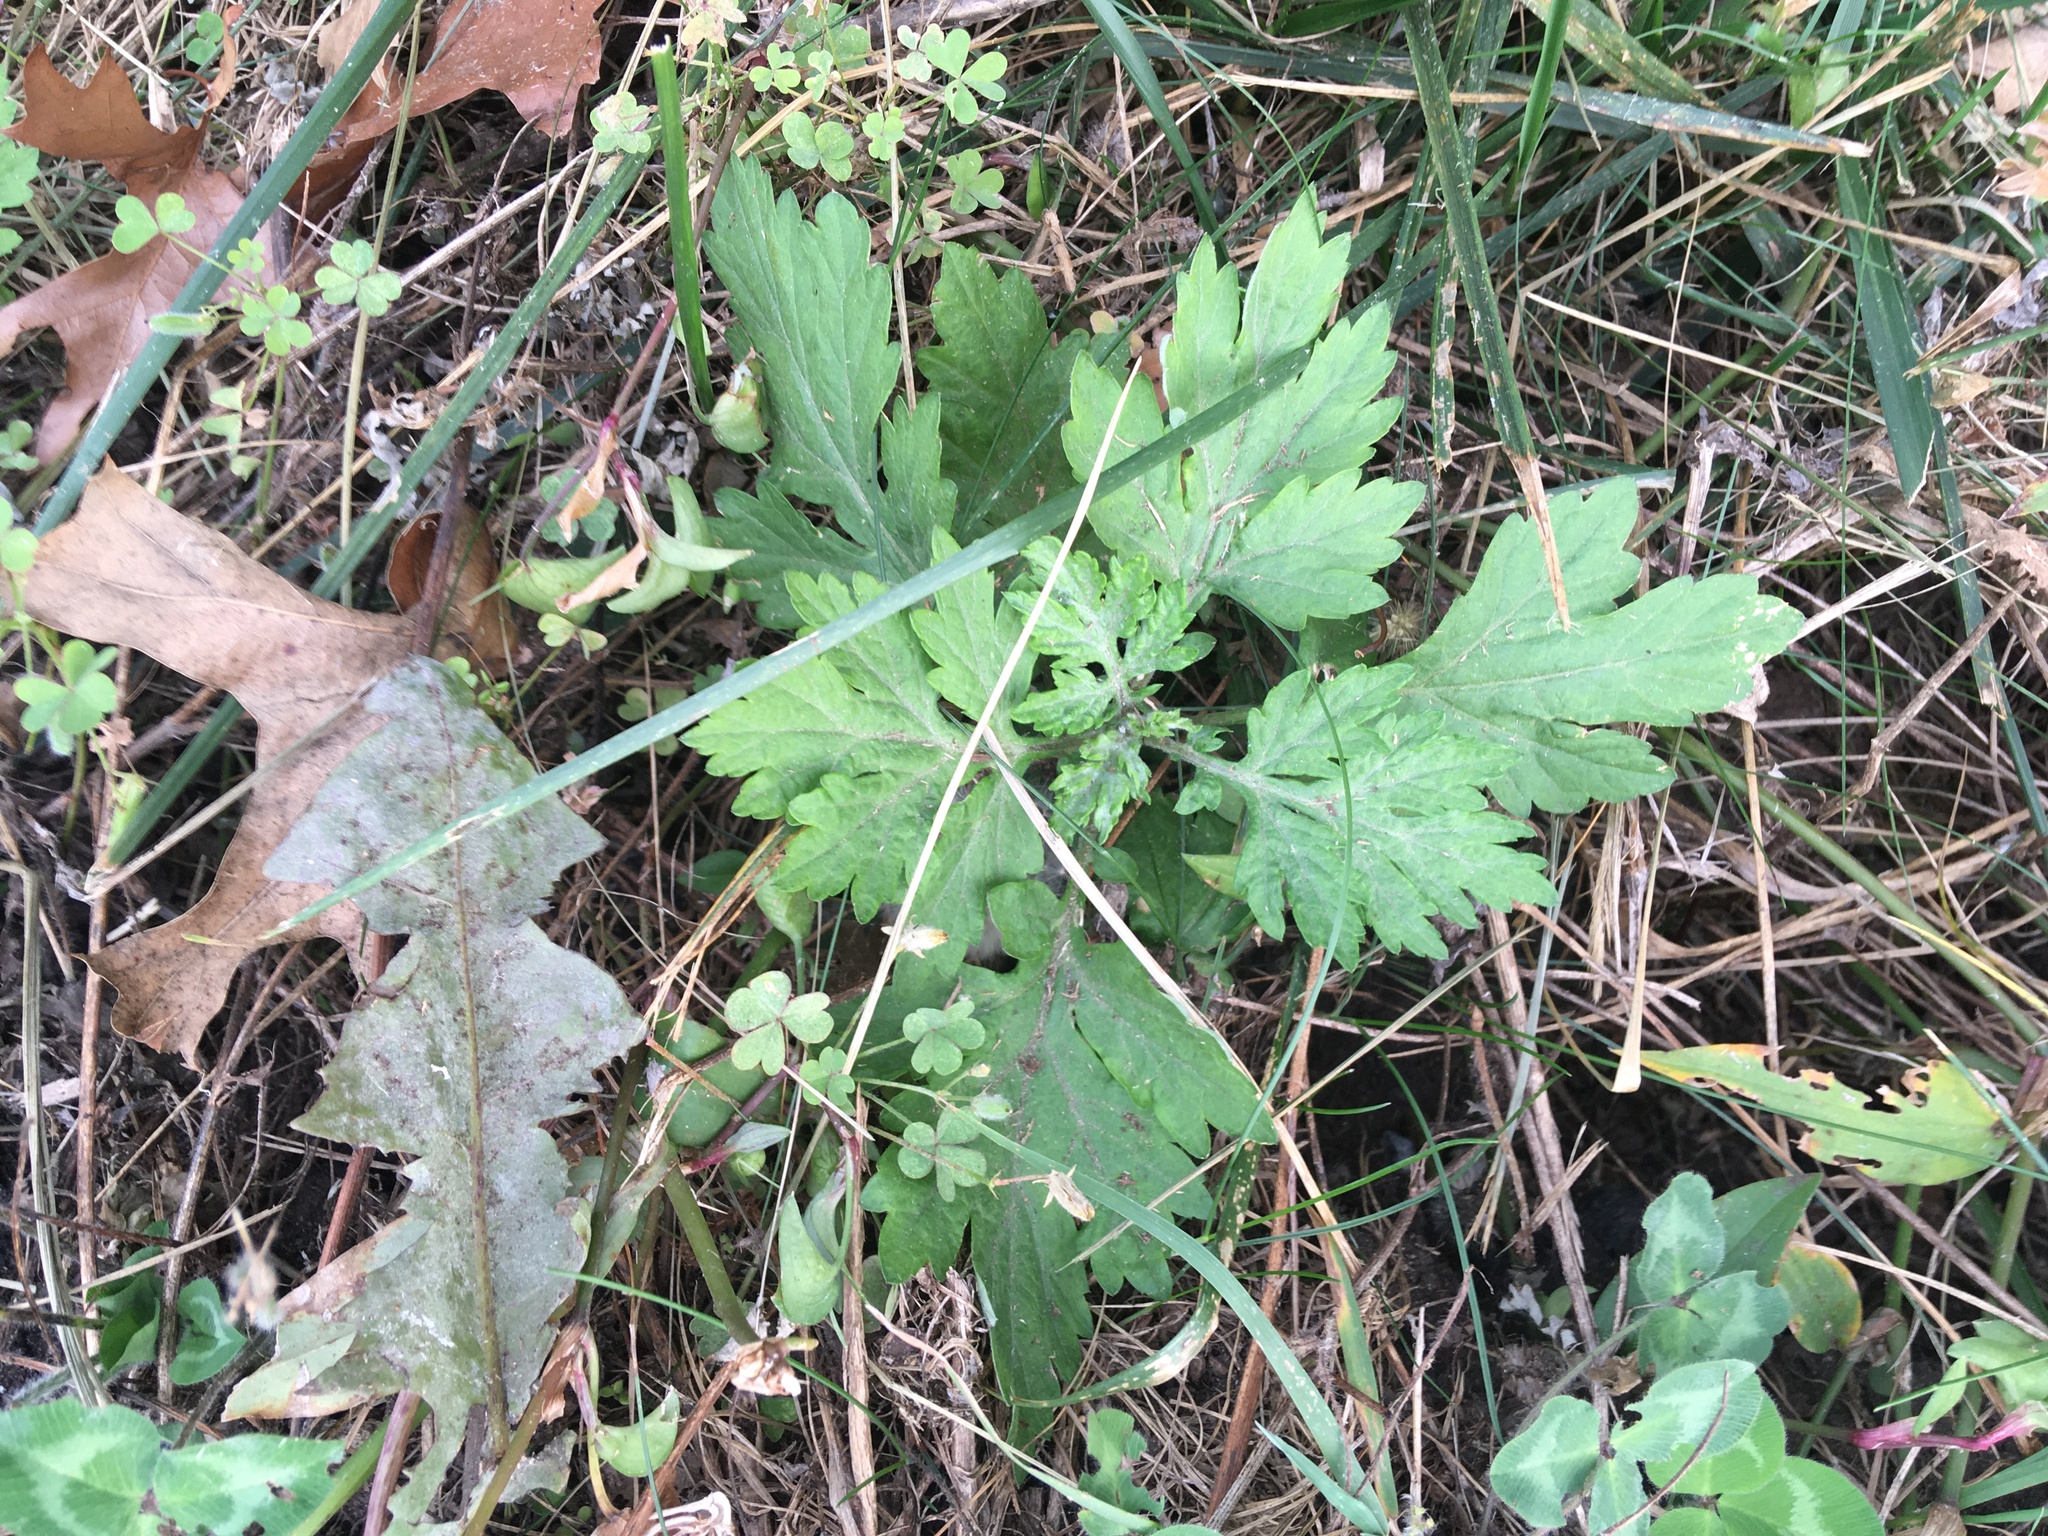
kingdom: Plantae
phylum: Tracheophyta
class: Magnoliopsida
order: Asterales
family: Asteraceae
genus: Artemisia
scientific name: Artemisia vulgaris
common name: Mugwort
